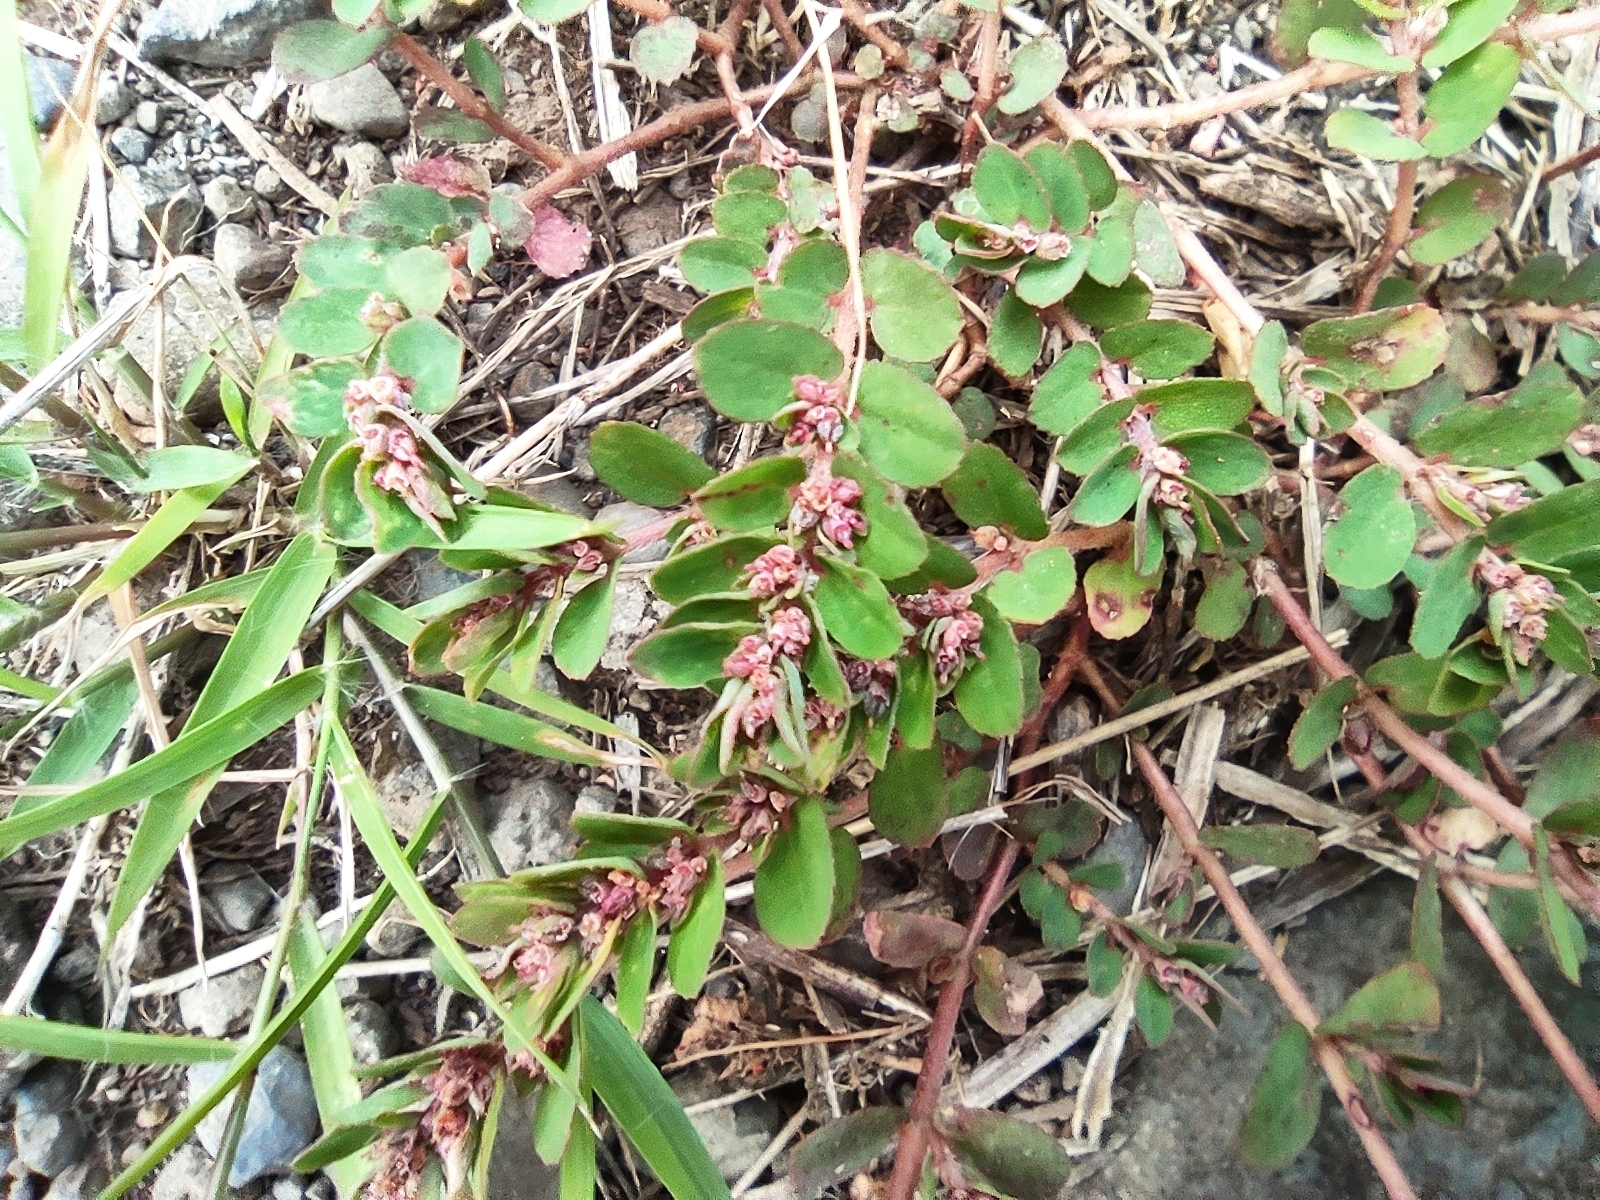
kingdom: Plantae
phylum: Tracheophyta
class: Magnoliopsida
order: Malpighiales
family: Euphorbiaceae
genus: Euphorbia
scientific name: Euphorbia thymifolia
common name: Gulf sandmat
